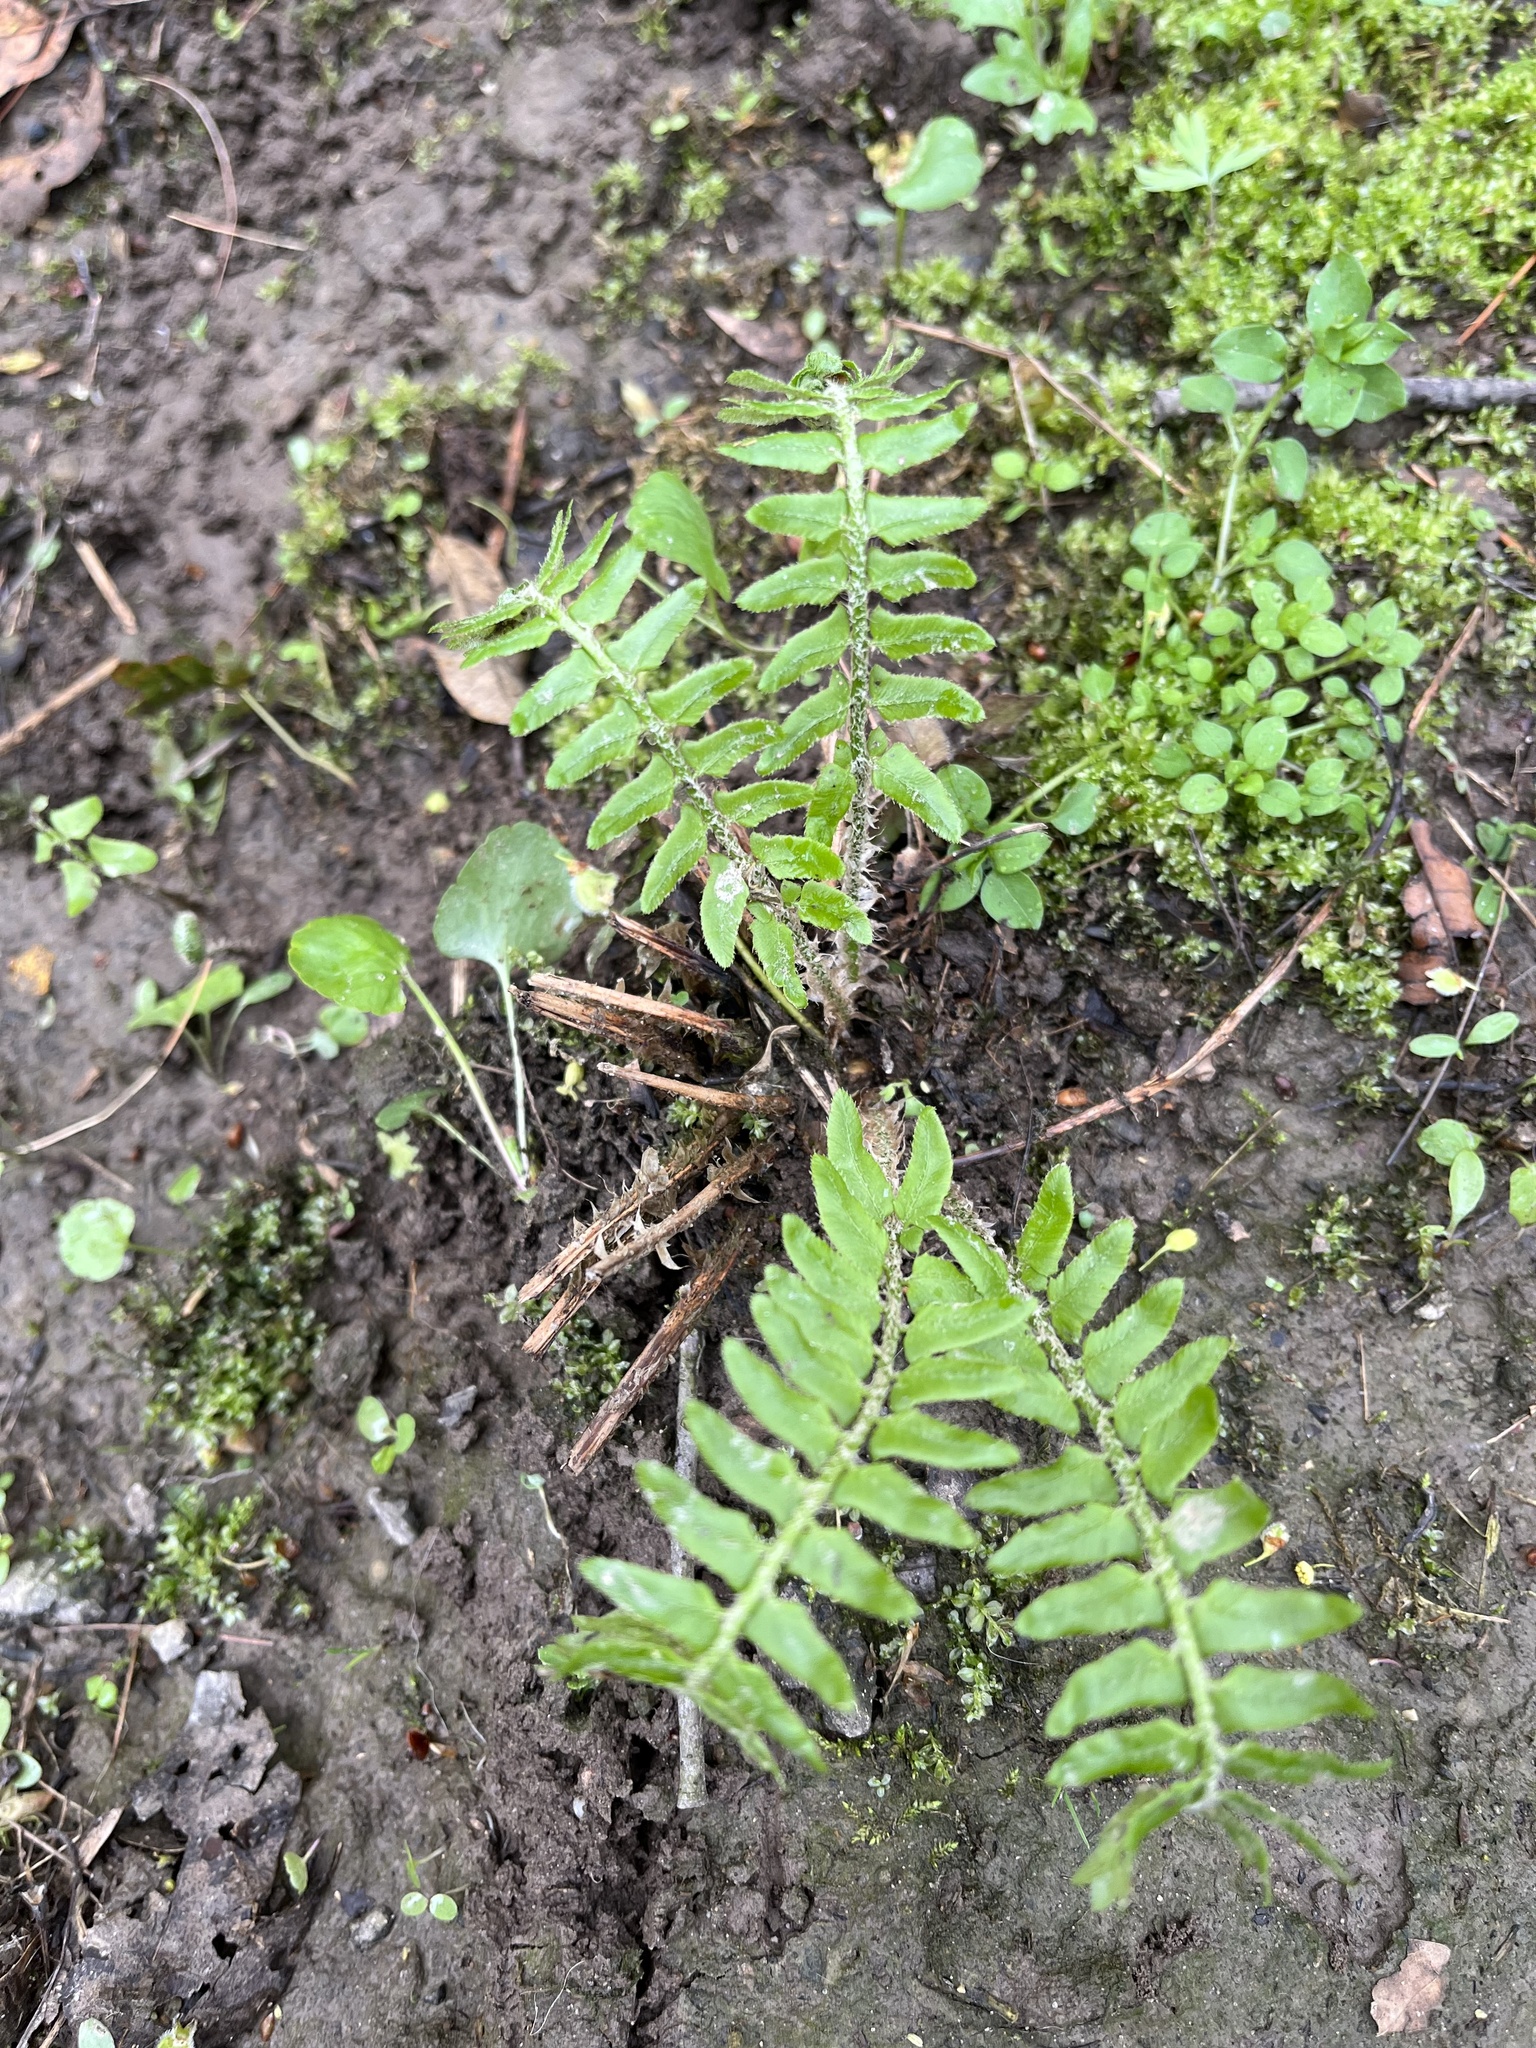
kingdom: Plantae
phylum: Tracheophyta
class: Polypodiopsida
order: Polypodiales
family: Dryopteridaceae
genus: Polystichum
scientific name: Polystichum acrostichoides
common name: Christmas fern
